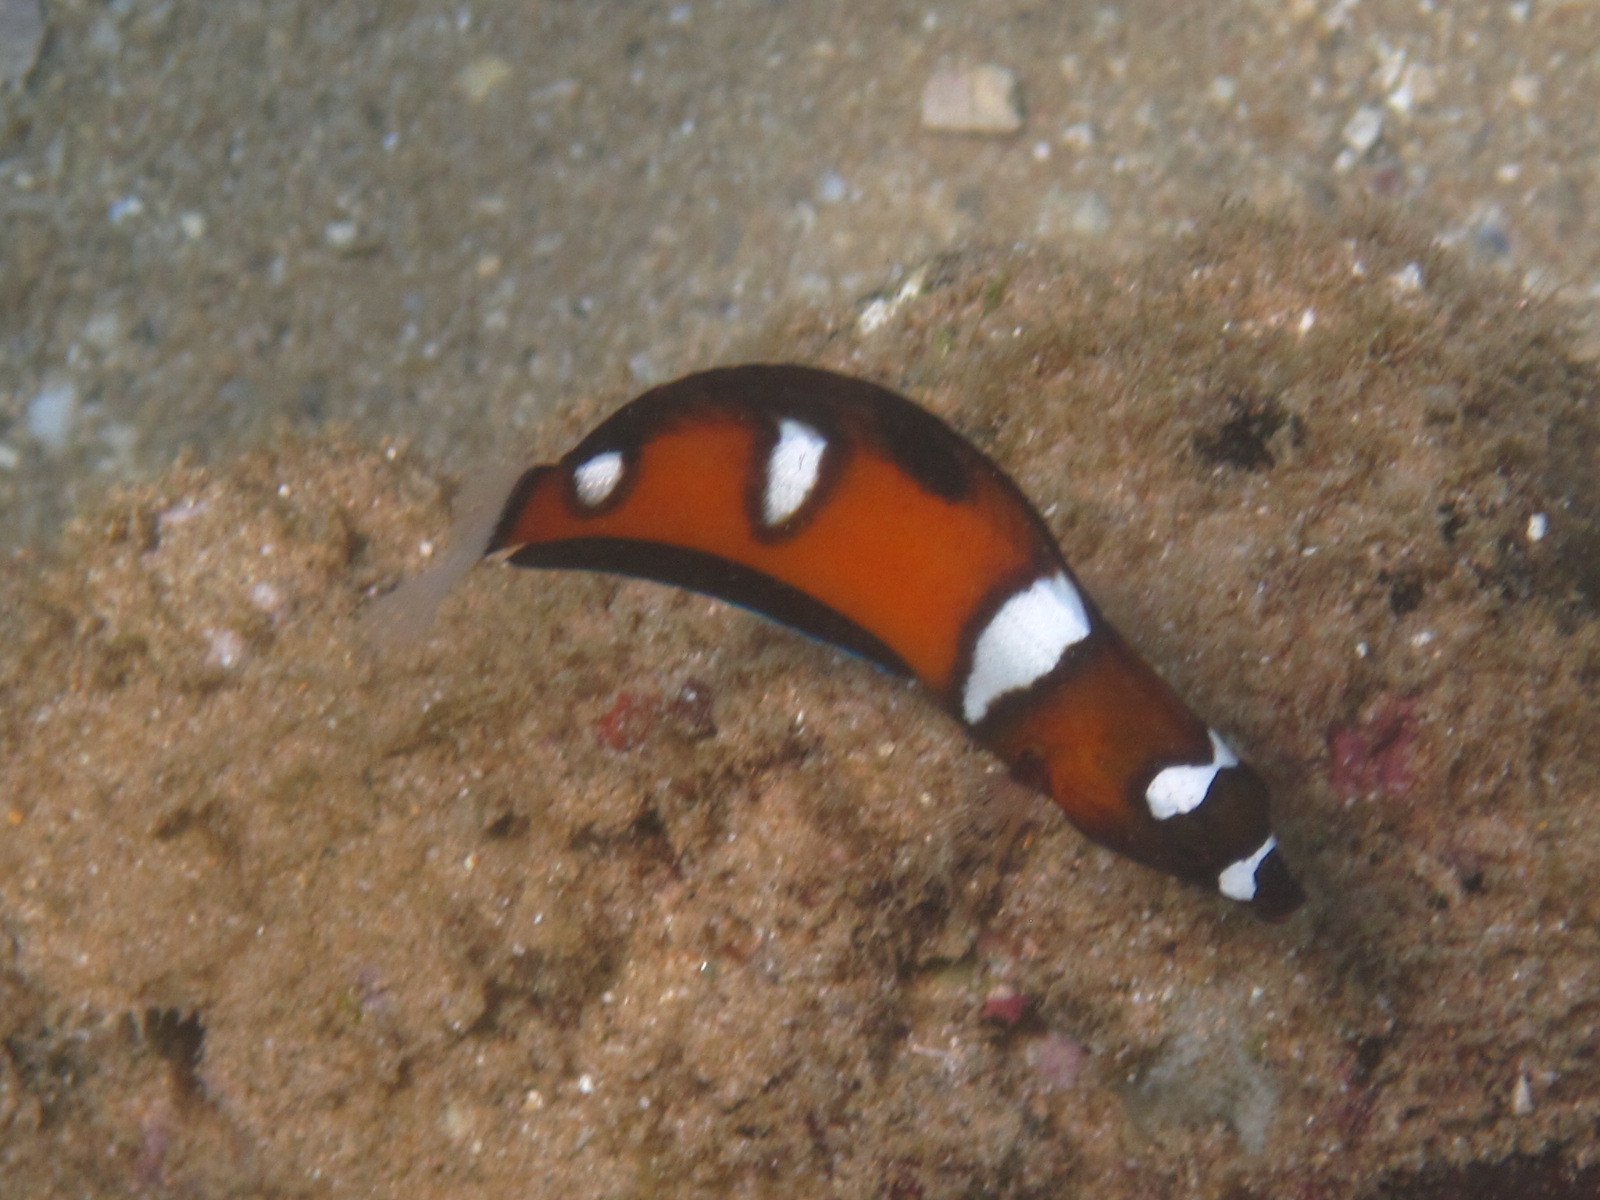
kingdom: Animalia
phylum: Chordata
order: Perciformes
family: Labridae
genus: Coris
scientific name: Coris formosa
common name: Queen coris
